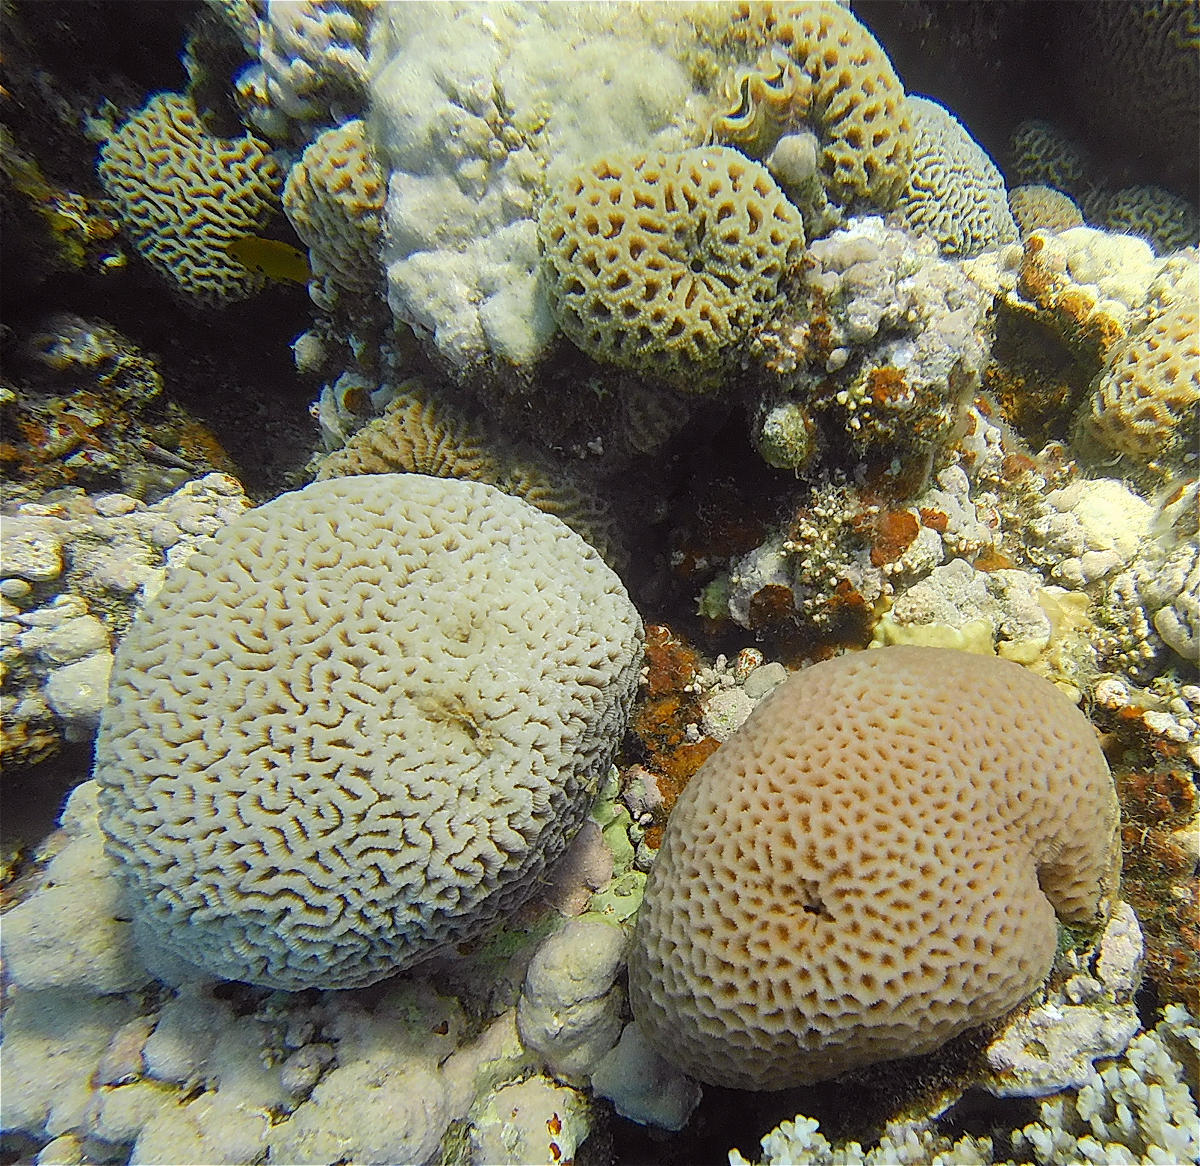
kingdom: Animalia
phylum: Cnidaria
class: Anthozoa
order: Scleractinia
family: Merulinidae
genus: Goniastrea
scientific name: Goniastrea pectinata
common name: Lesser star coral
